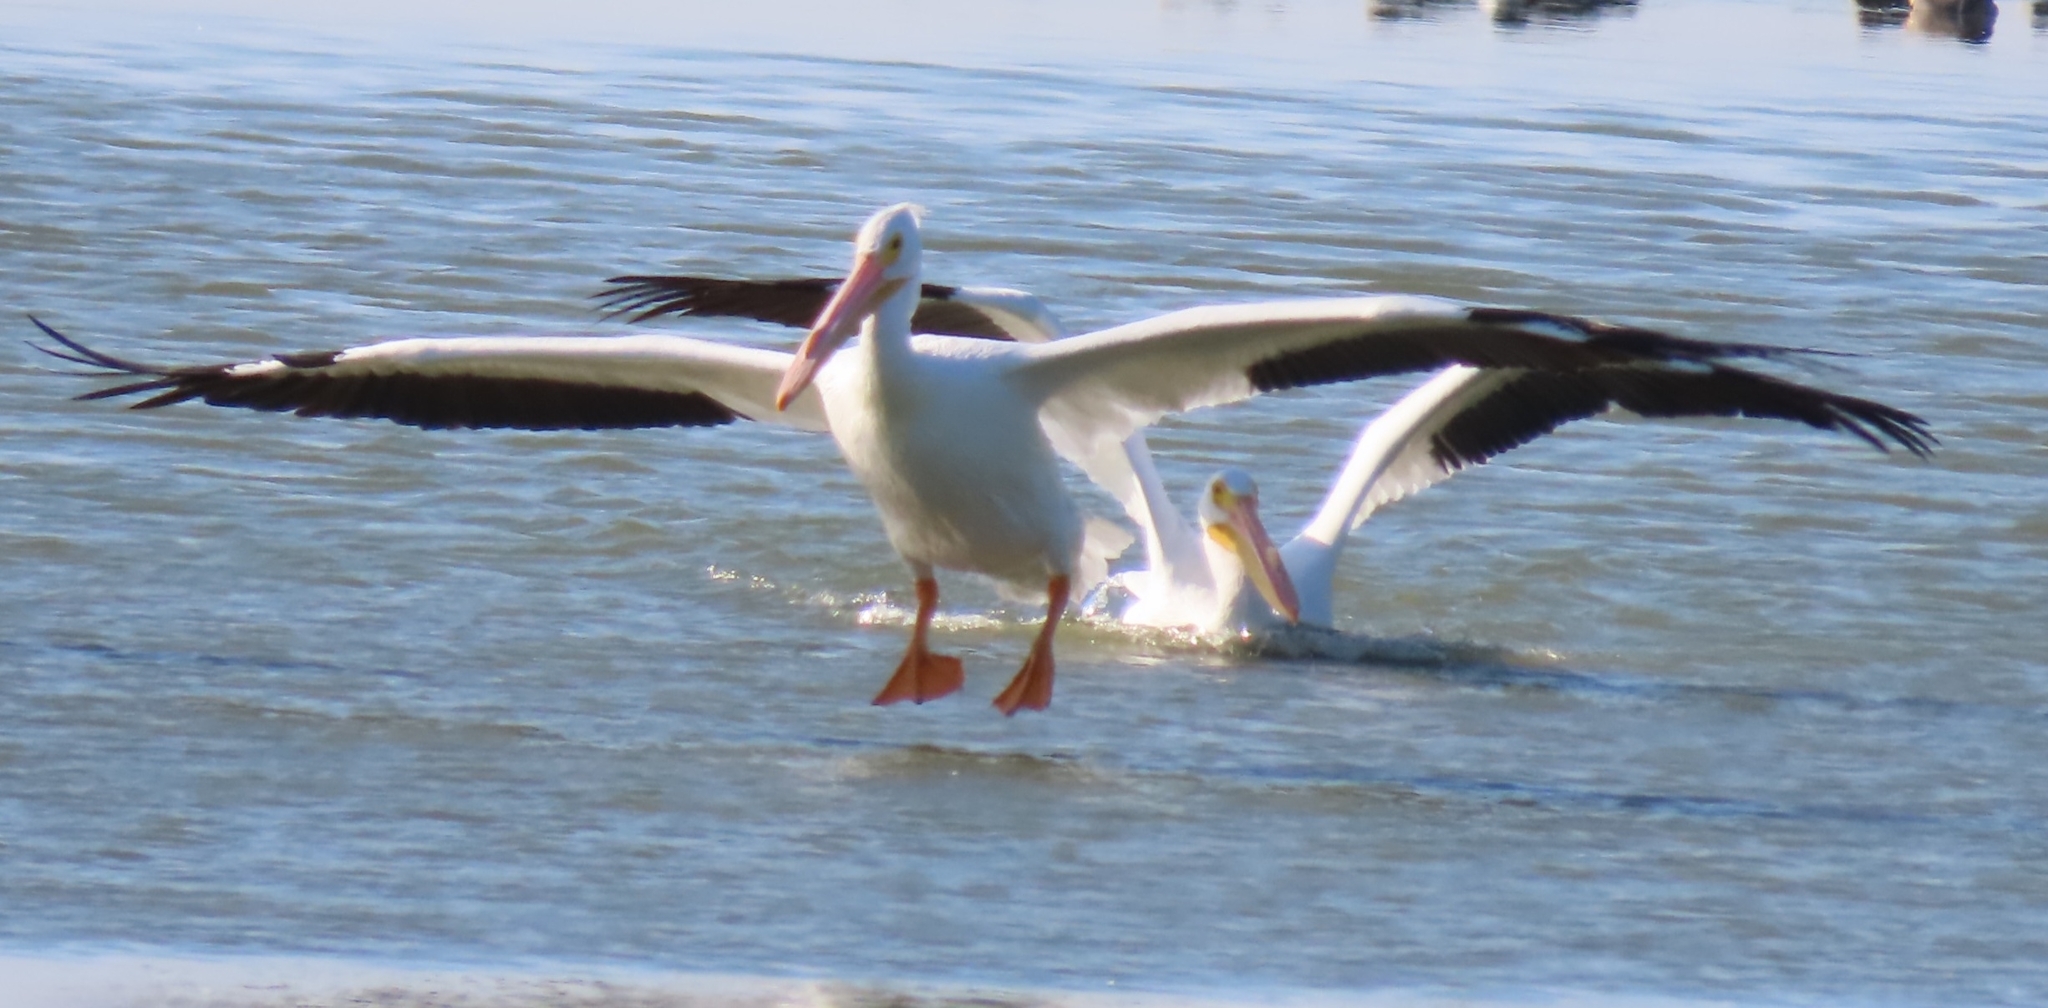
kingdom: Animalia
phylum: Chordata
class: Aves
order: Pelecaniformes
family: Pelecanidae
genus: Pelecanus
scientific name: Pelecanus erythrorhynchos
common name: American white pelican
